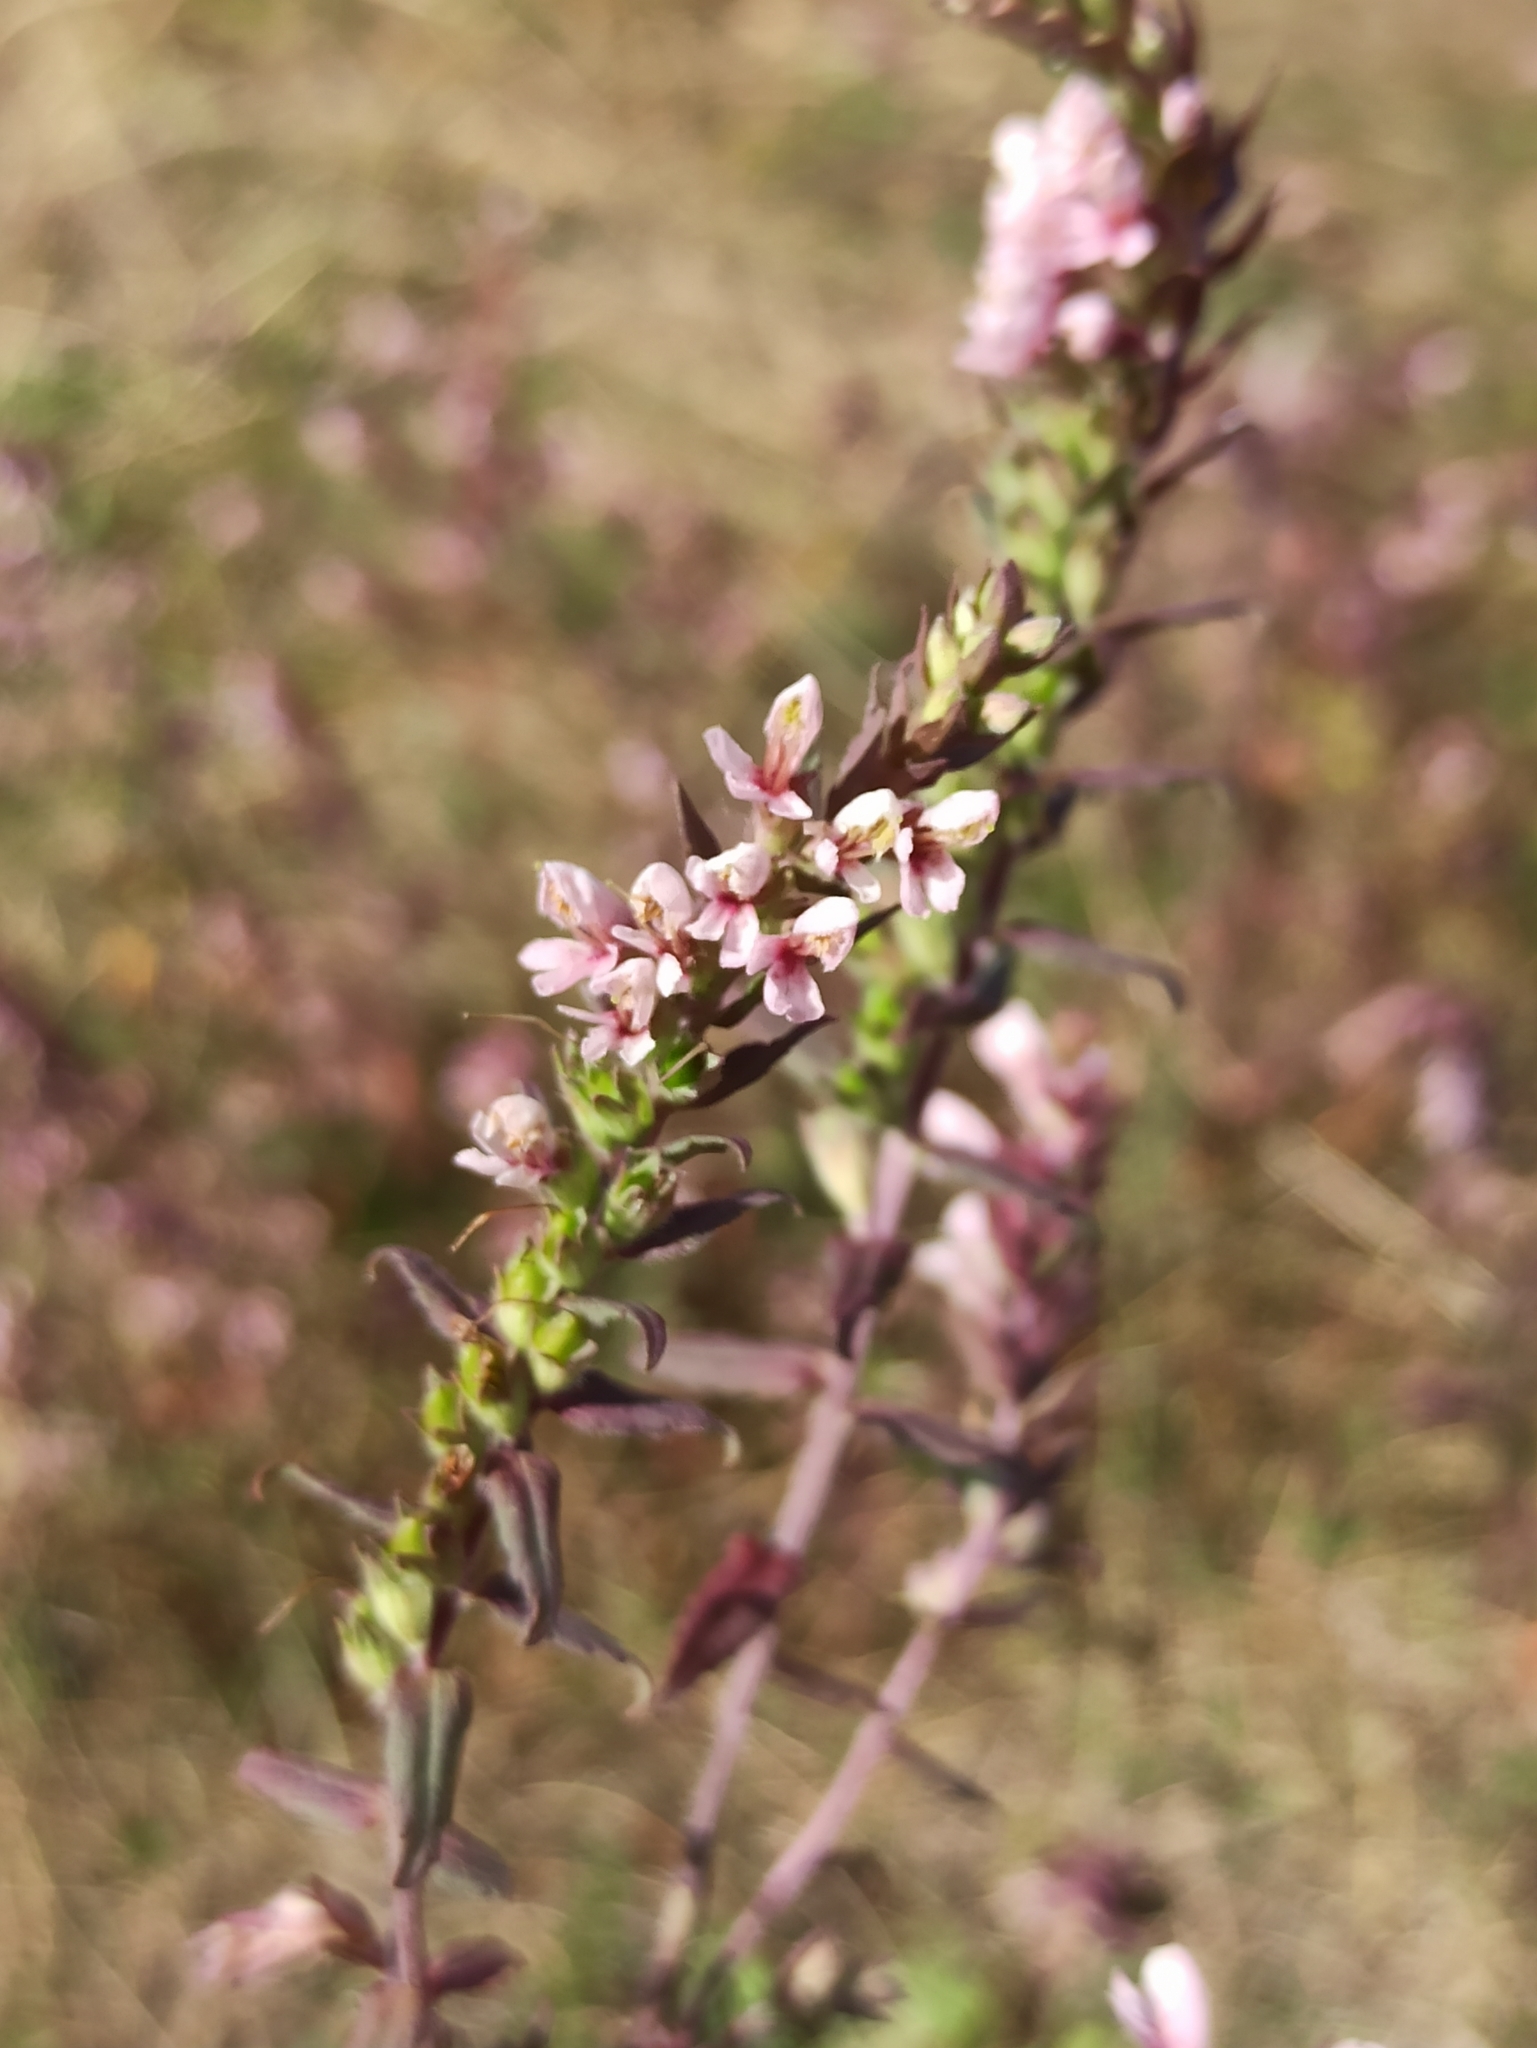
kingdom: Plantae
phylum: Tracheophyta
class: Magnoliopsida
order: Lamiales
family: Orobanchaceae
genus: Odontites
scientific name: Odontites vulgaris
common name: Broomrape
